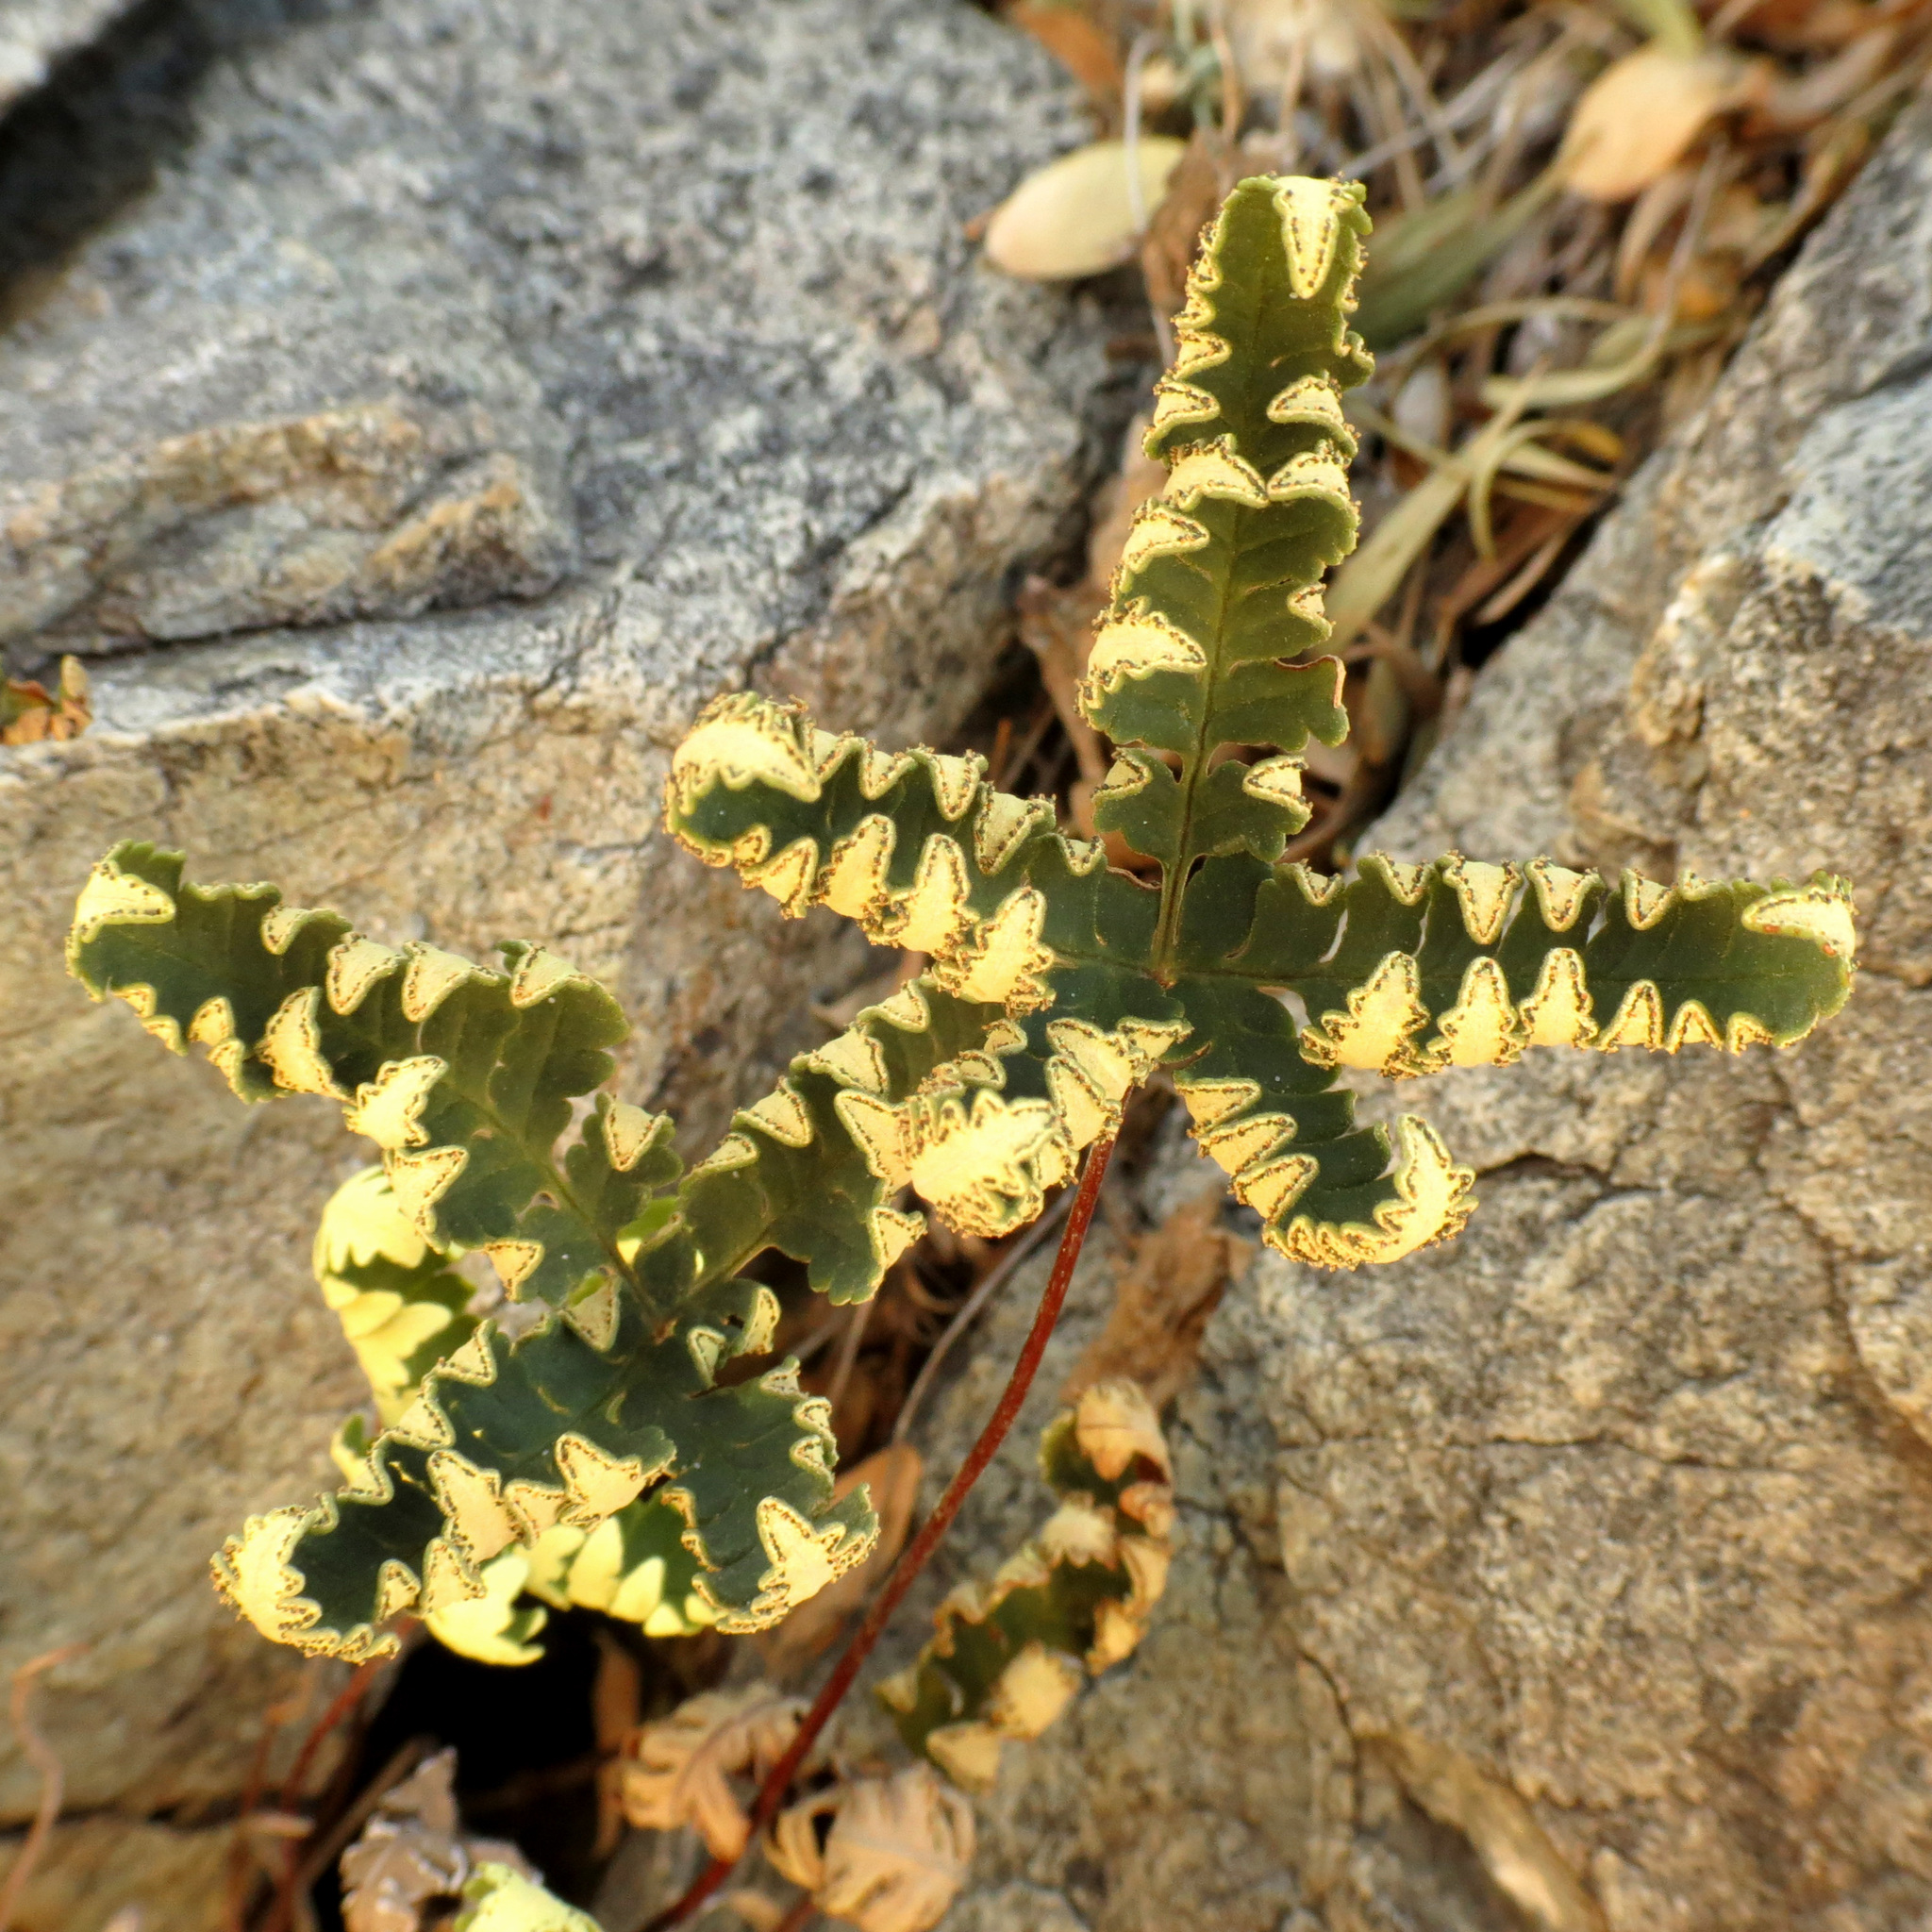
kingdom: Plantae
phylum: Tracheophyta
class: Polypodiopsida
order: Polypodiales
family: Pteridaceae
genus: Notholaena
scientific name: Notholaena standleyi
